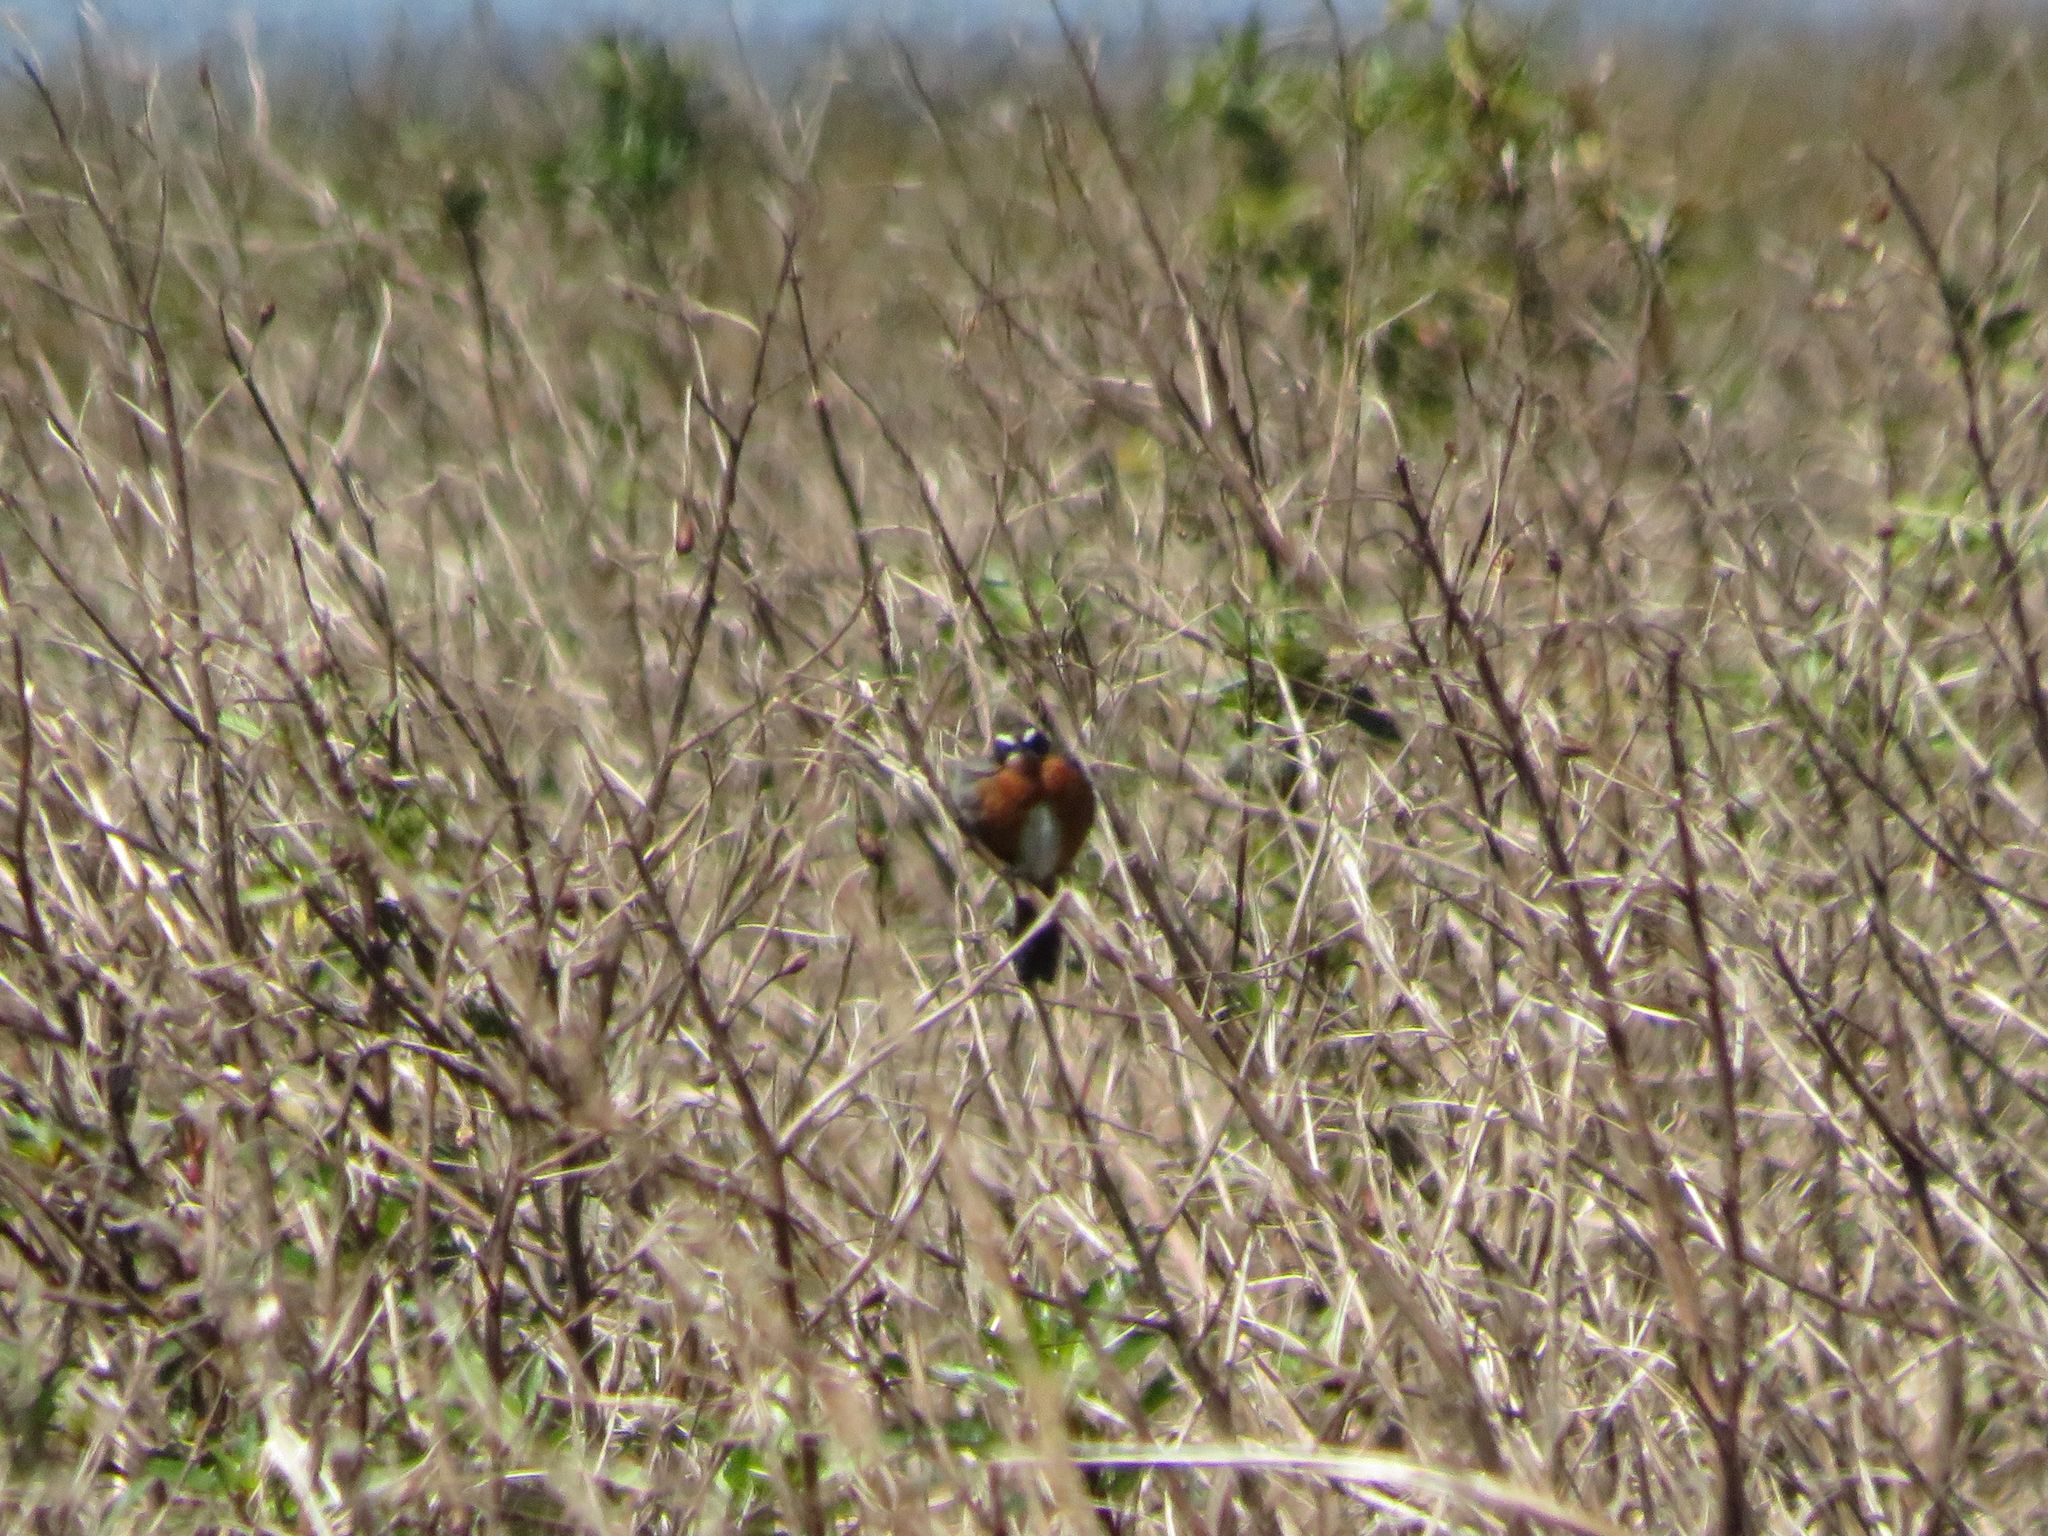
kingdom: Animalia
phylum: Chordata
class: Aves
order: Passeriformes
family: Thraupidae
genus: Poospiza
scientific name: Poospiza nigrorufa
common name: Black-and-rufous warbling finch
